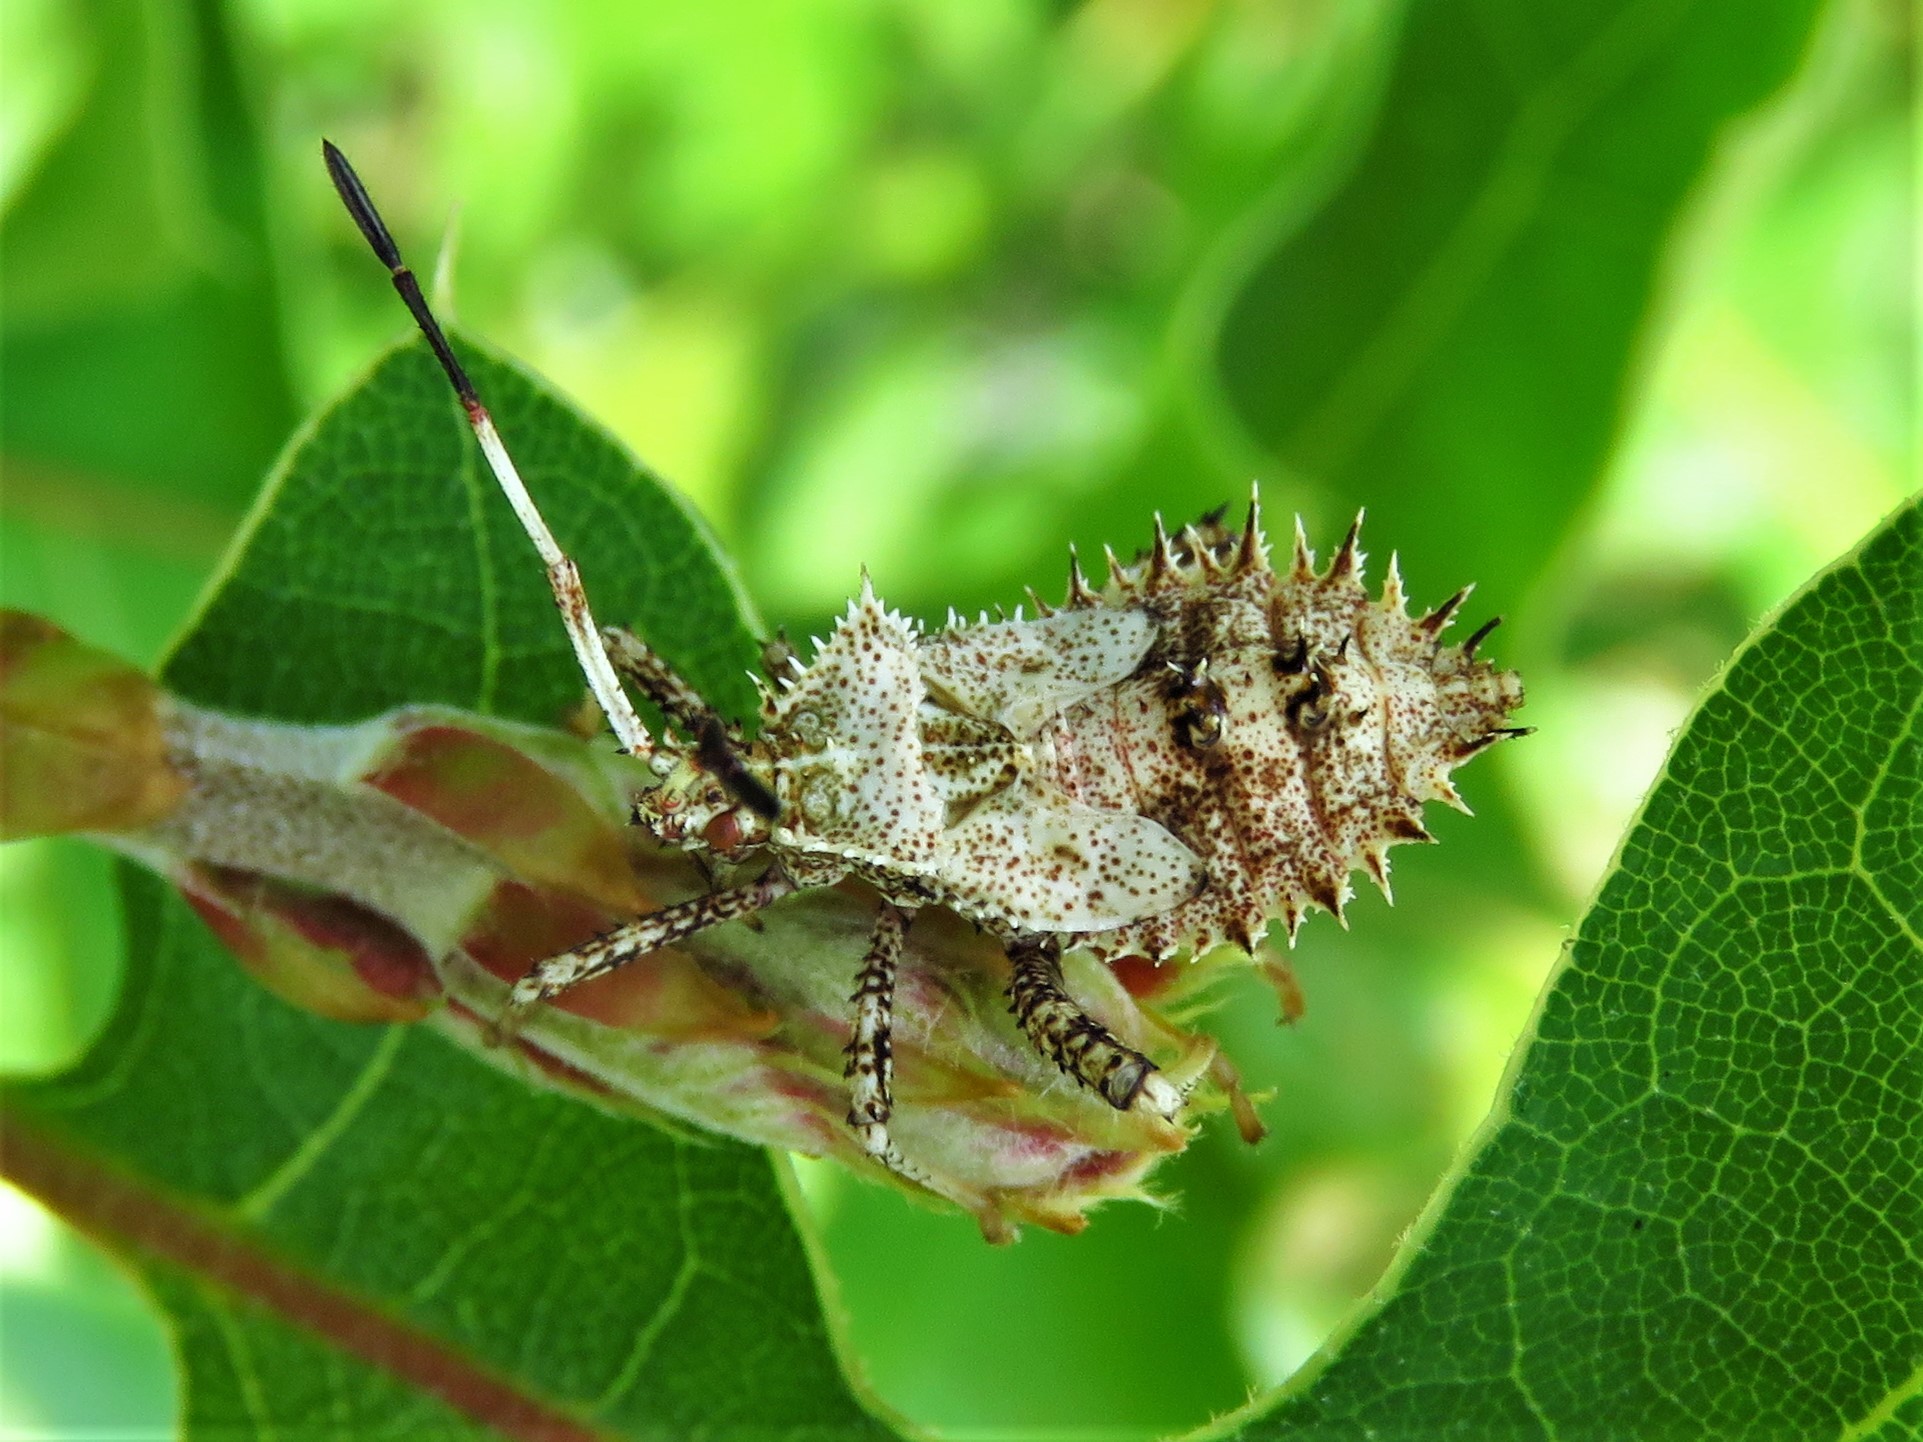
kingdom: Animalia
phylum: Arthropoda
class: Insecta
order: Hemiptera
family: Coreidae
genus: Euthochtha
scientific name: Euthochtha galeator
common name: Helmeted squash bug
